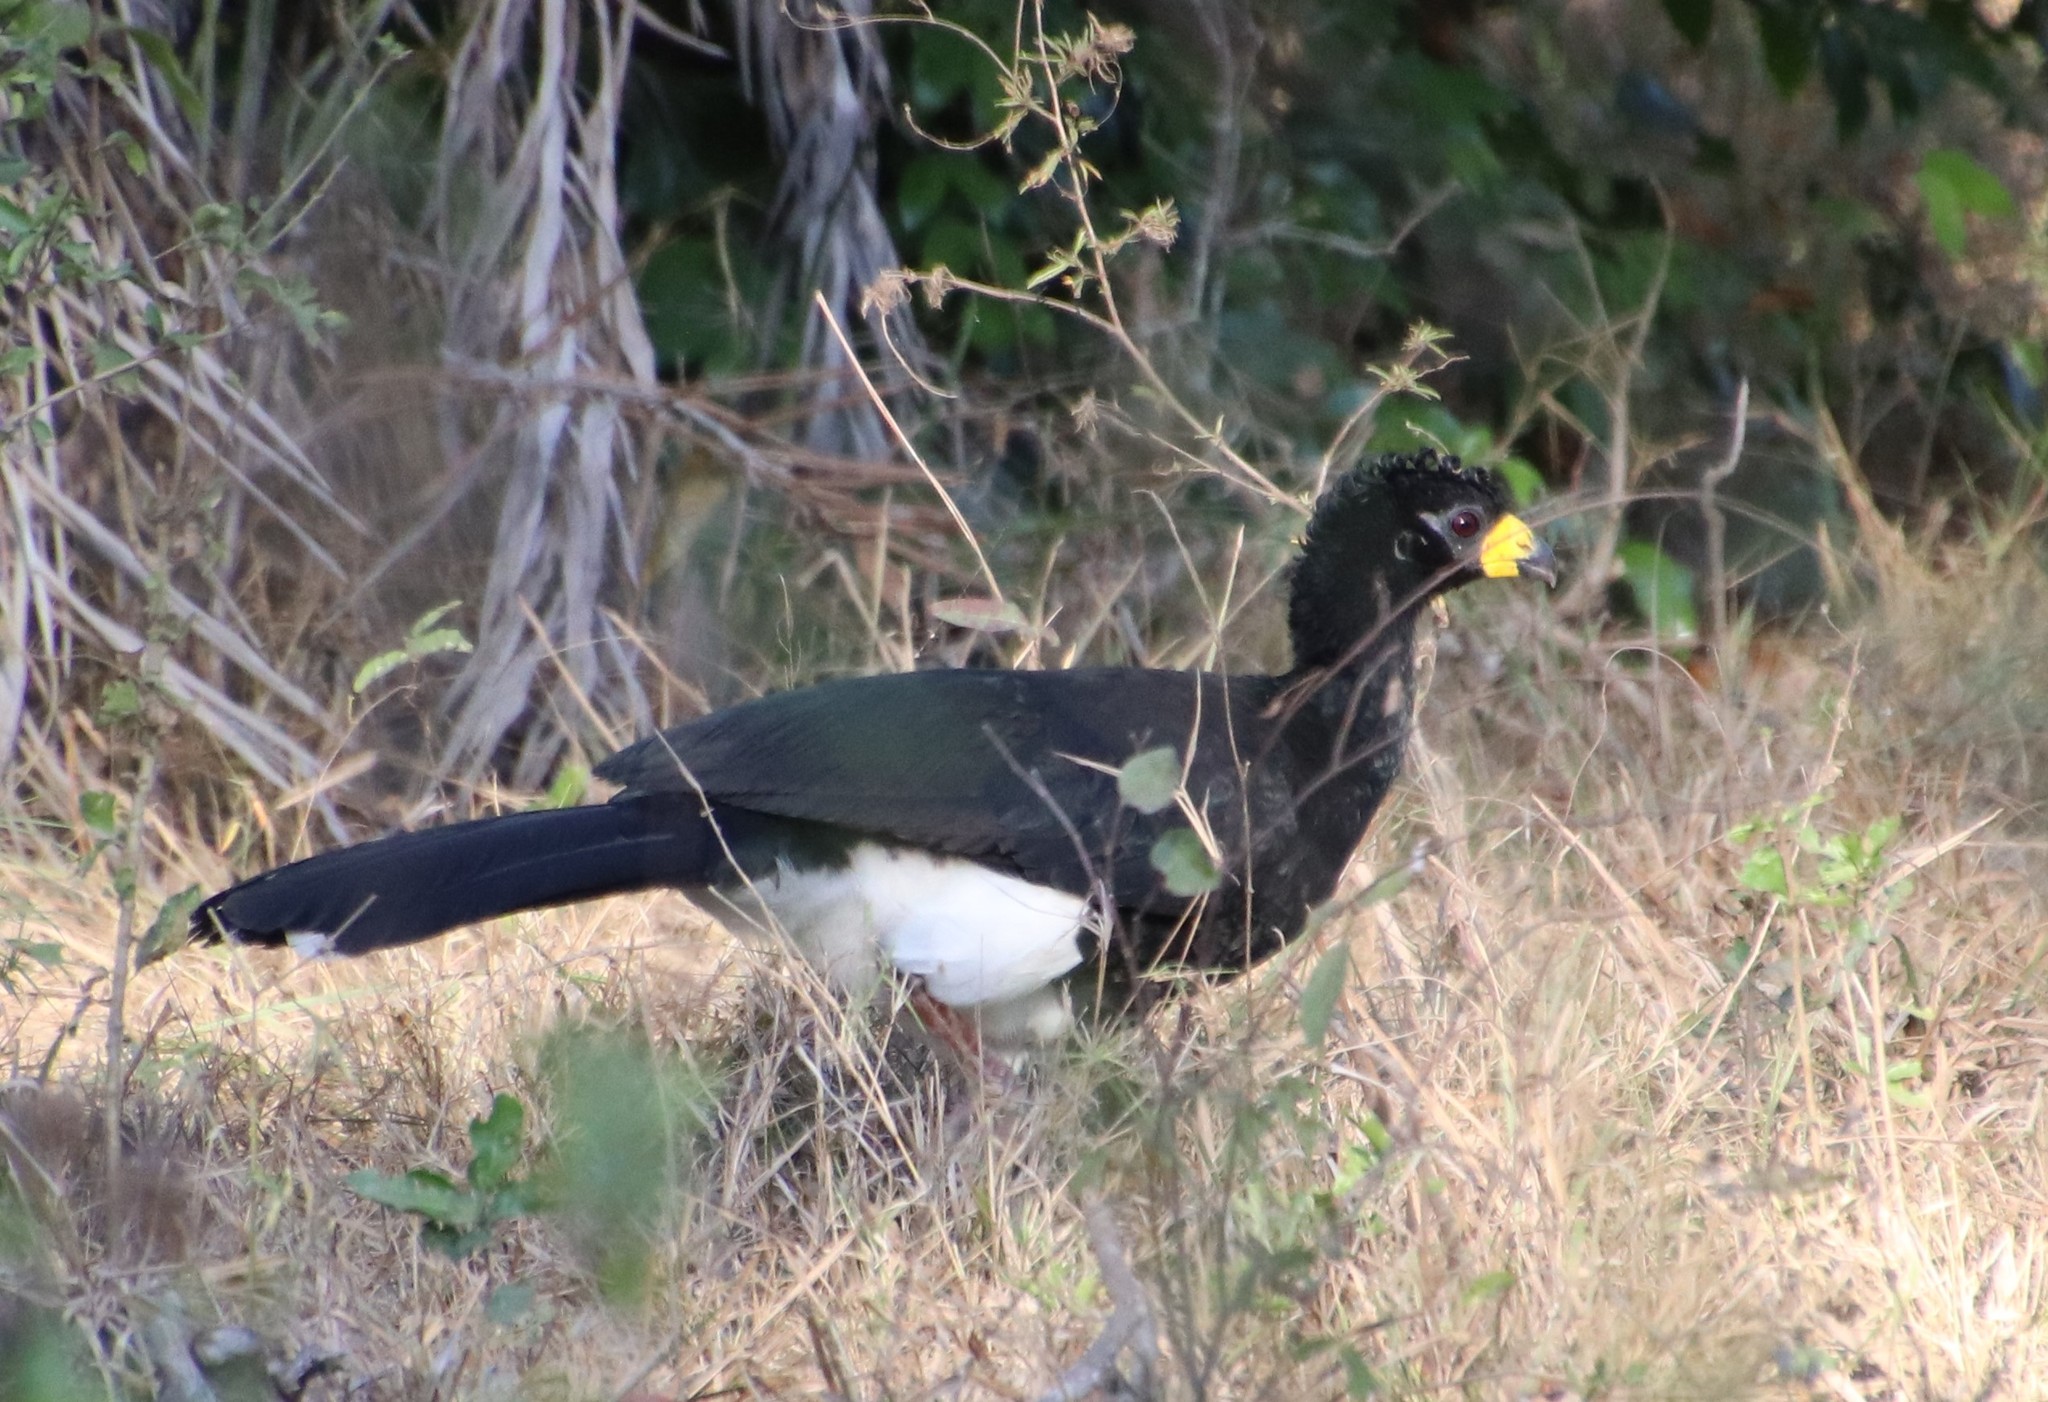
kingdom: Animalia
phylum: Chordata
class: Aves
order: Galliformes
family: Cracidae
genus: Crax
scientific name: Crax fasciolata
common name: Bare-faced curassow
